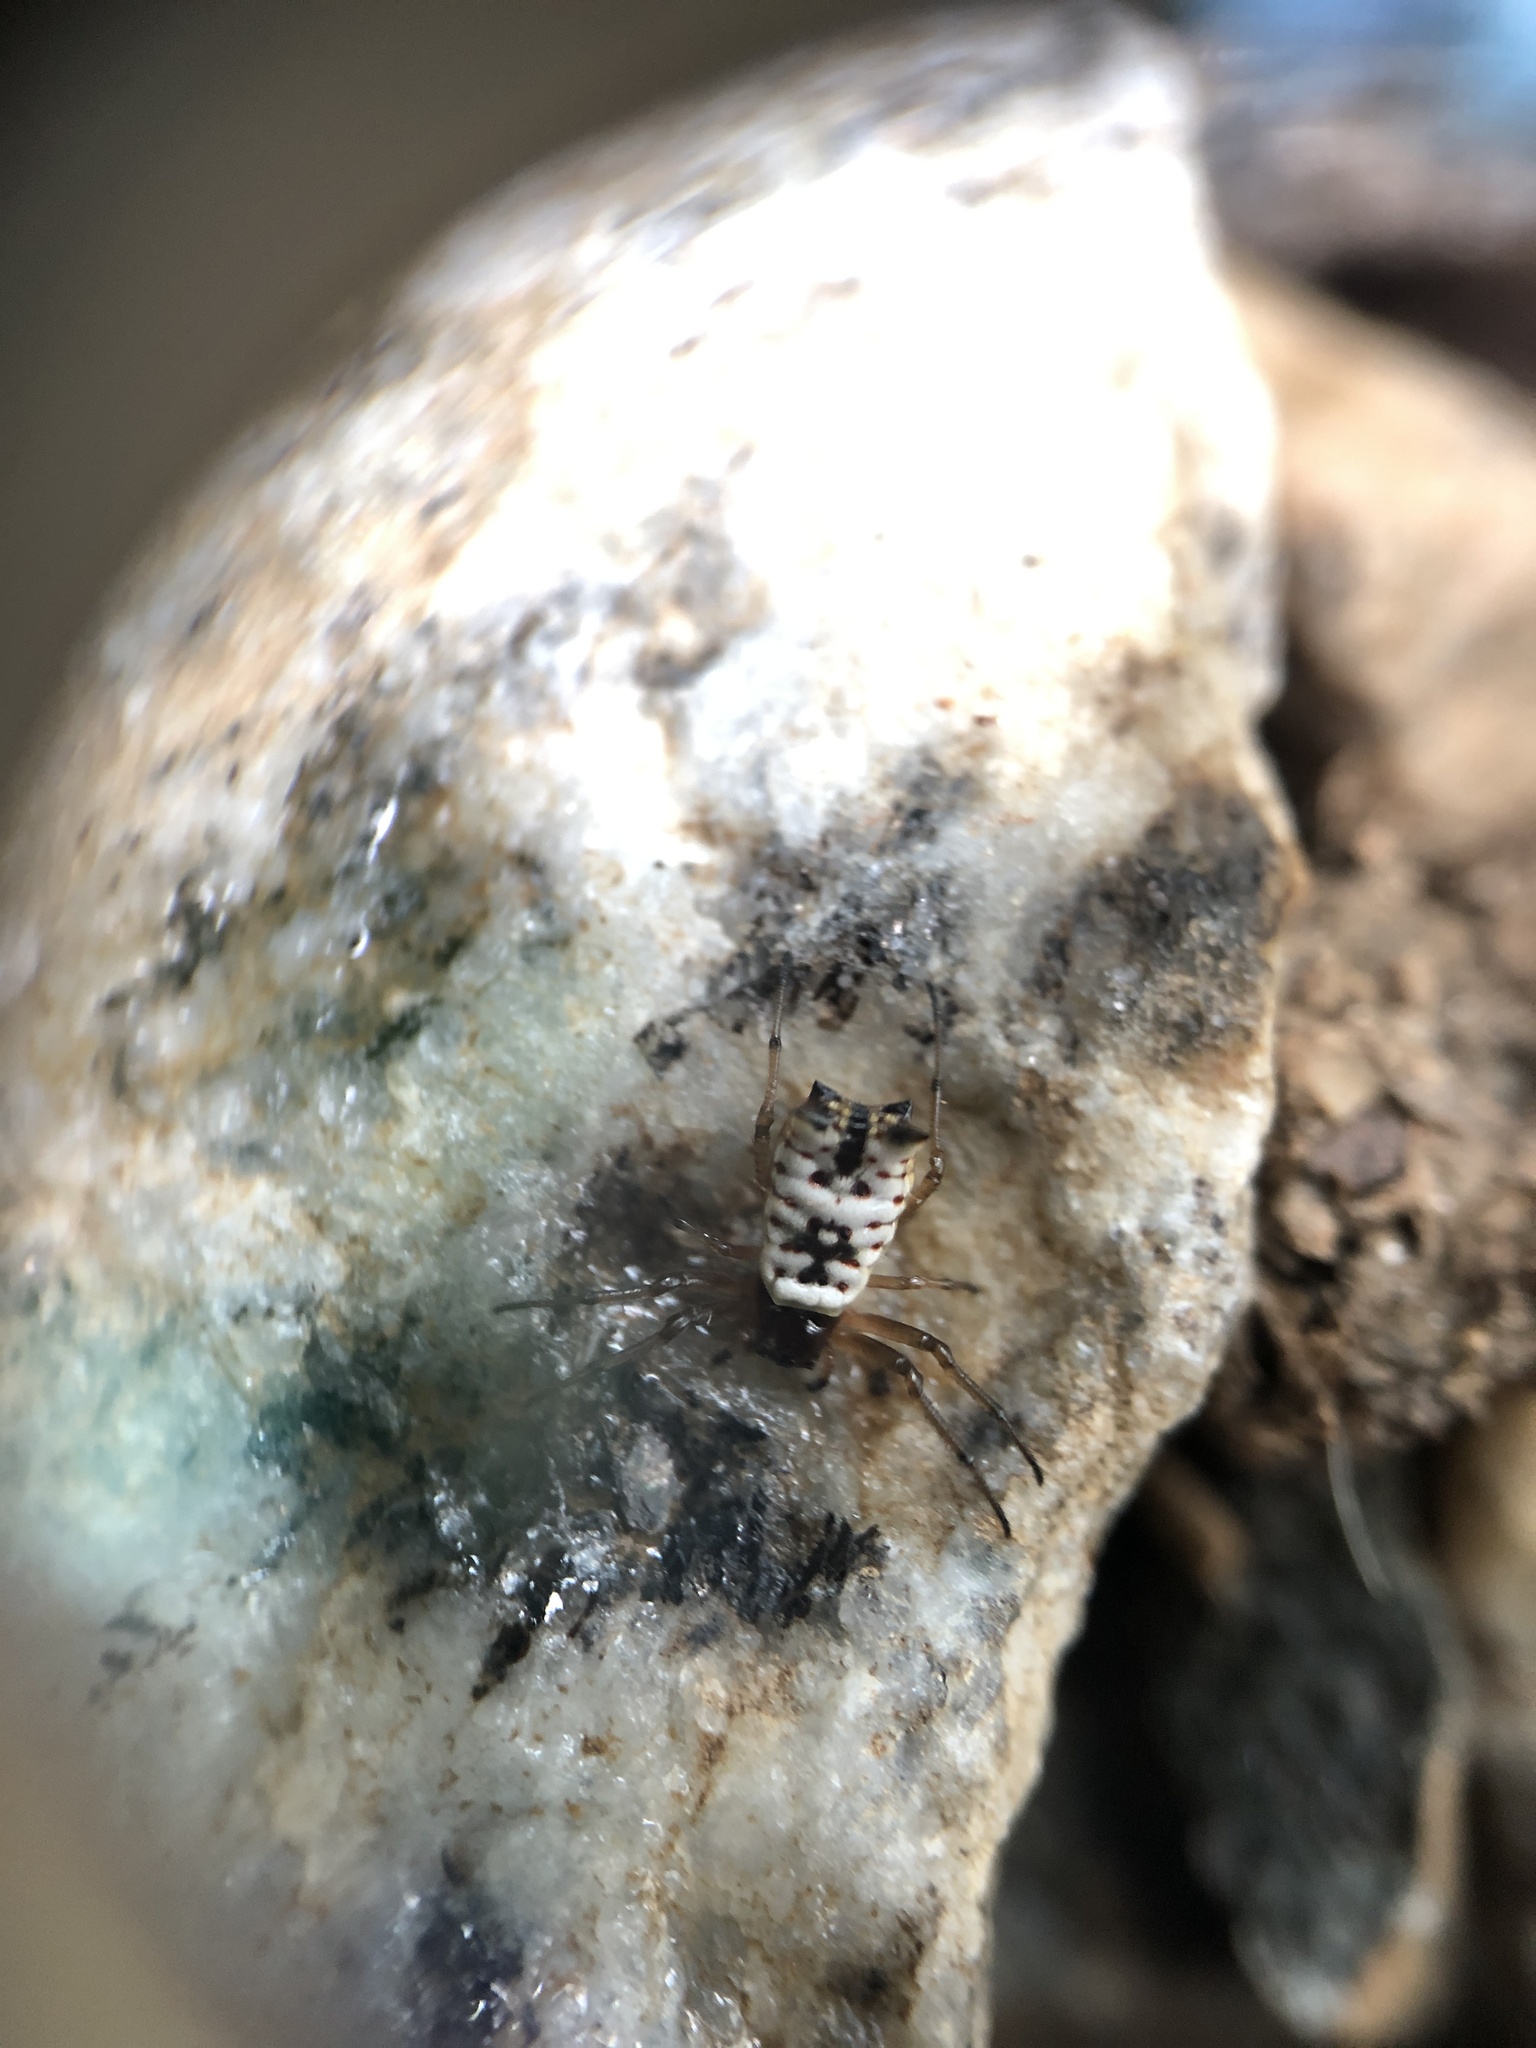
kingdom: Animalia
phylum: Arthropoda
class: Arachnida
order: Araneae
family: Araneidae
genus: Micrathena
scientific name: Micrathena mitrata
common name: Orb weavers
